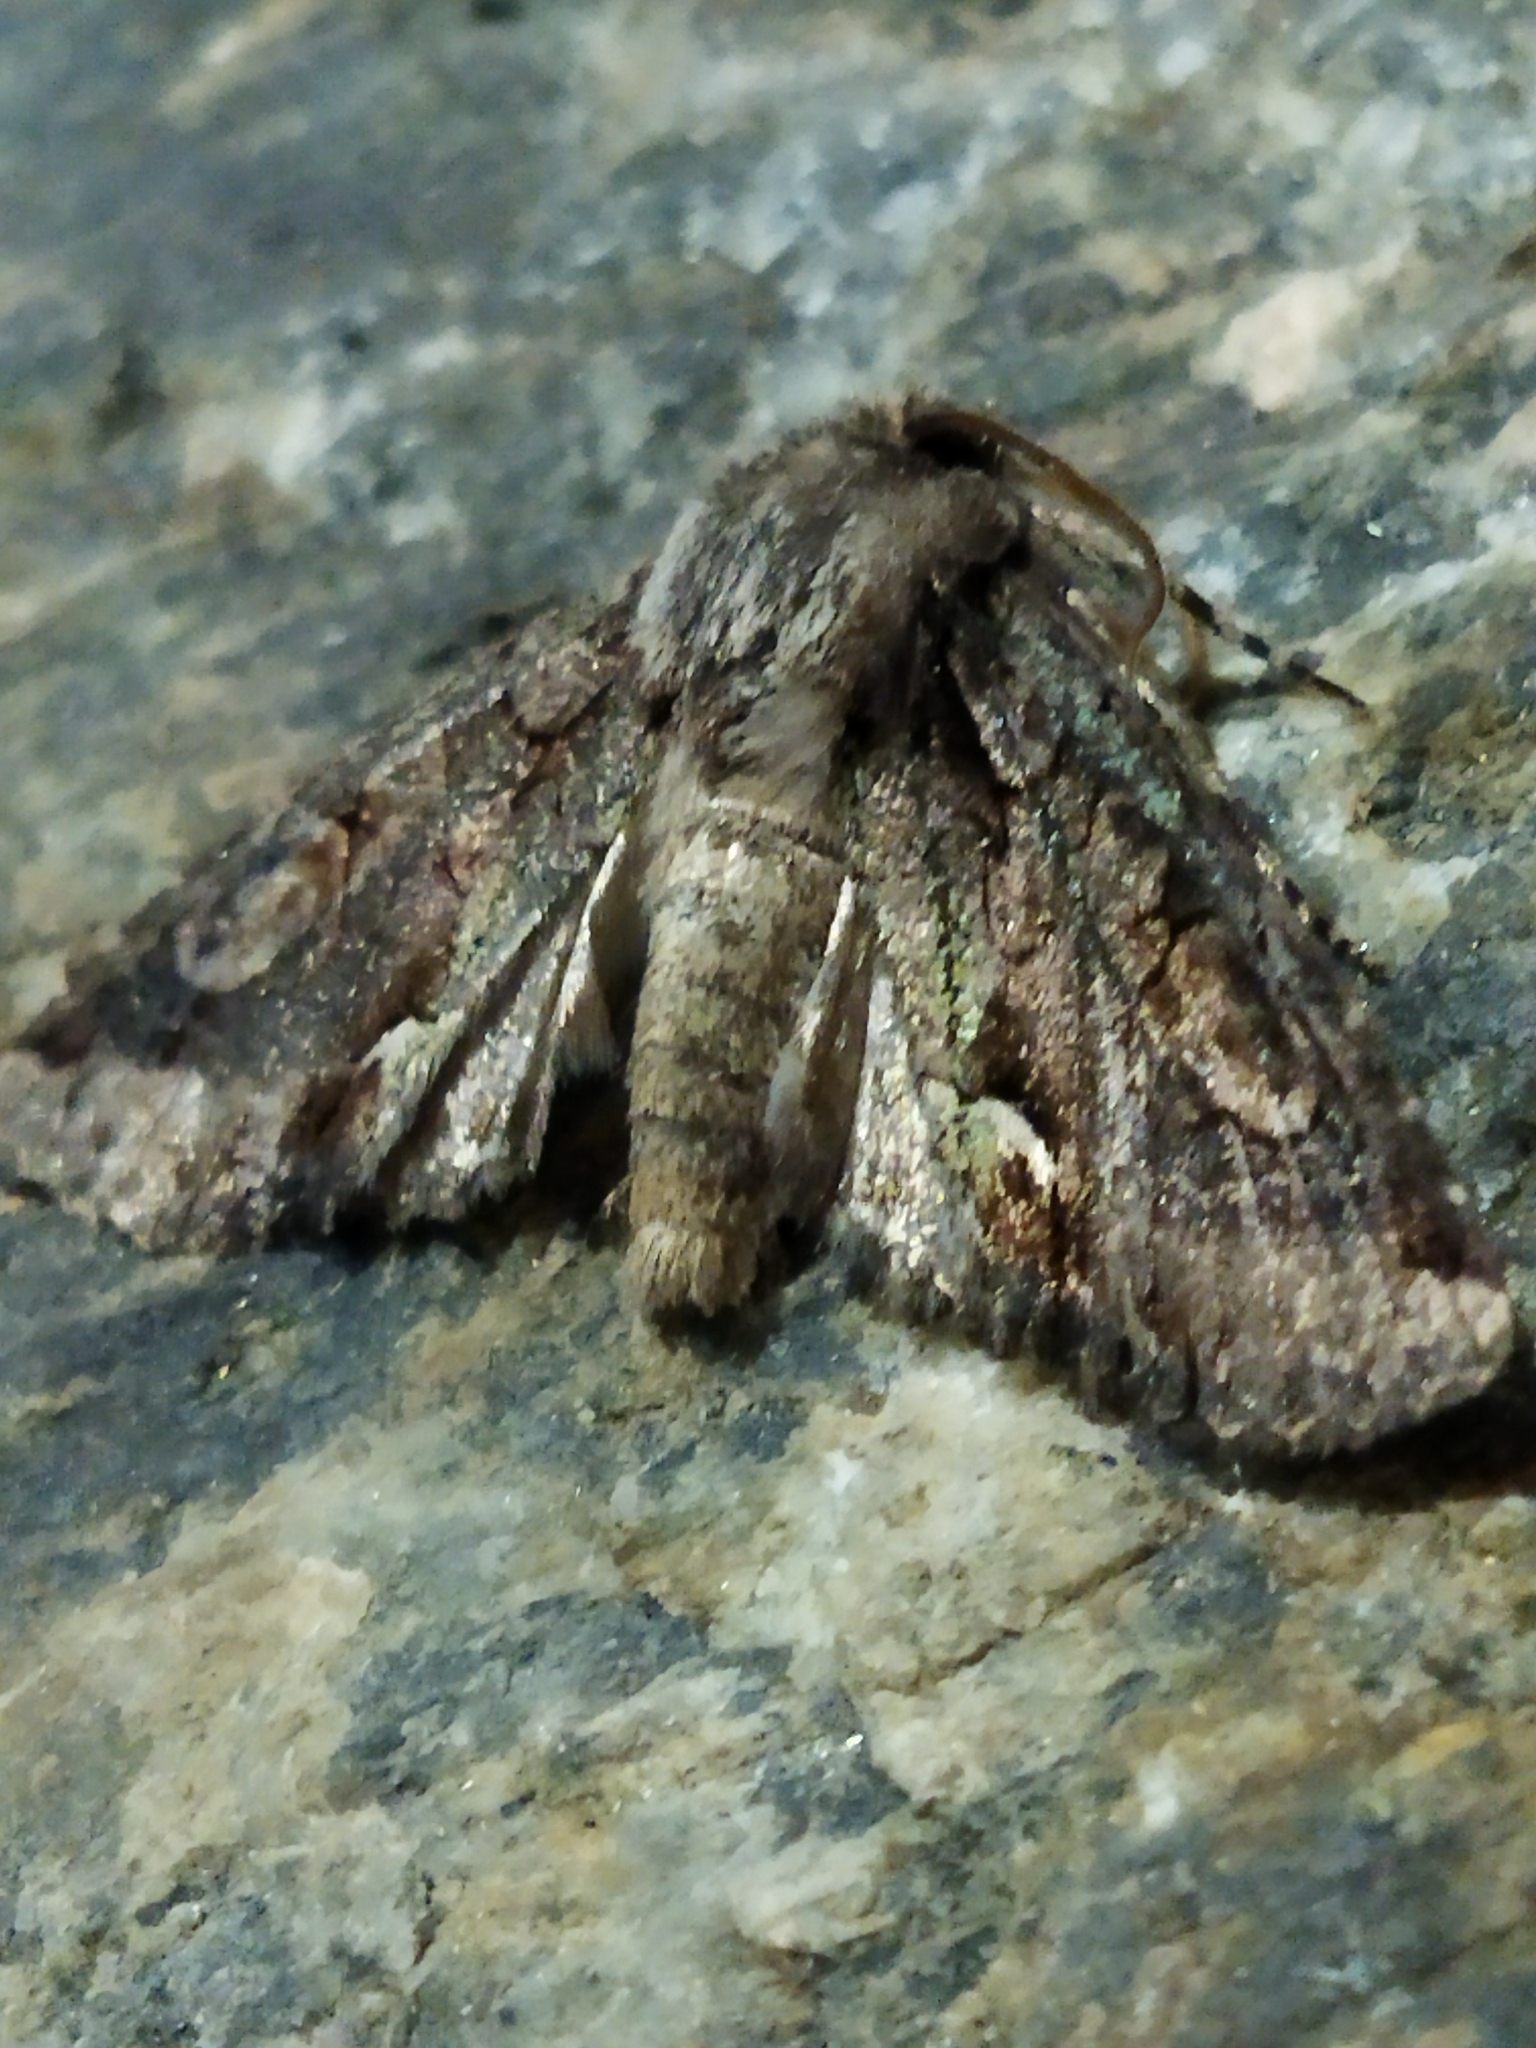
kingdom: Animalia
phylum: Arthropoda
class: Insecta
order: Lepidoptera
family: Noctuidae
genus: Allophyes
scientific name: Allophyes oxyacanthae
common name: Green-brindled crescent
